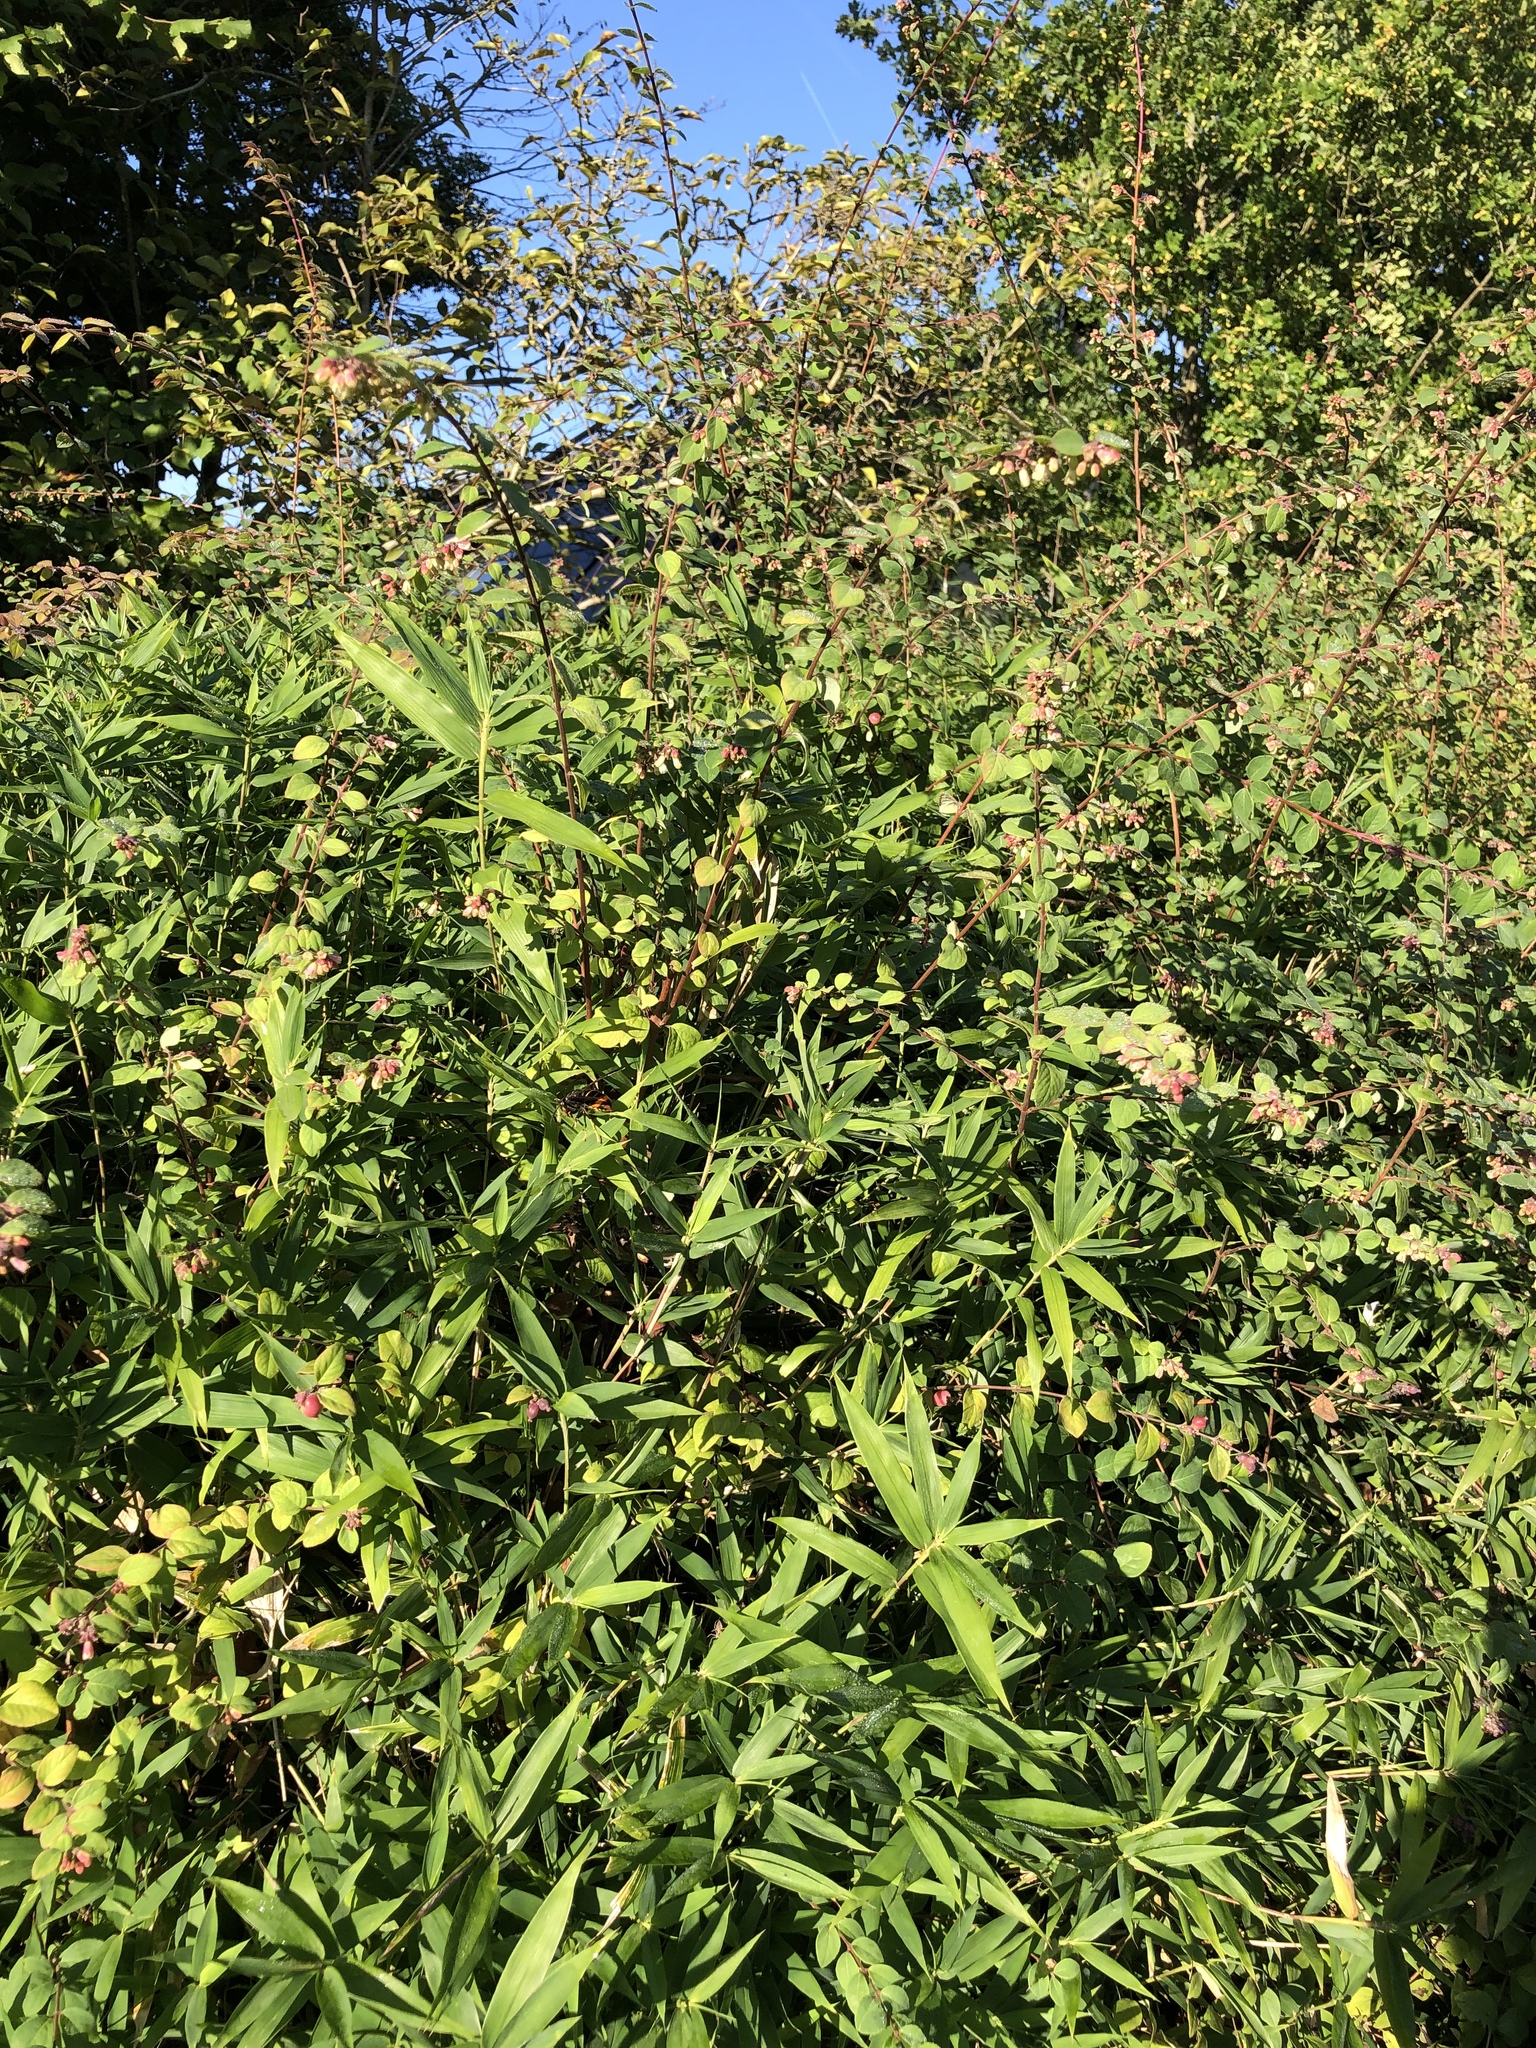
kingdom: Animalia
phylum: Arthropoda
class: Insecta
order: Hymenoptera
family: Vespidae
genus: Vespa
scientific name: Vespa velutina
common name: Asian hornet
